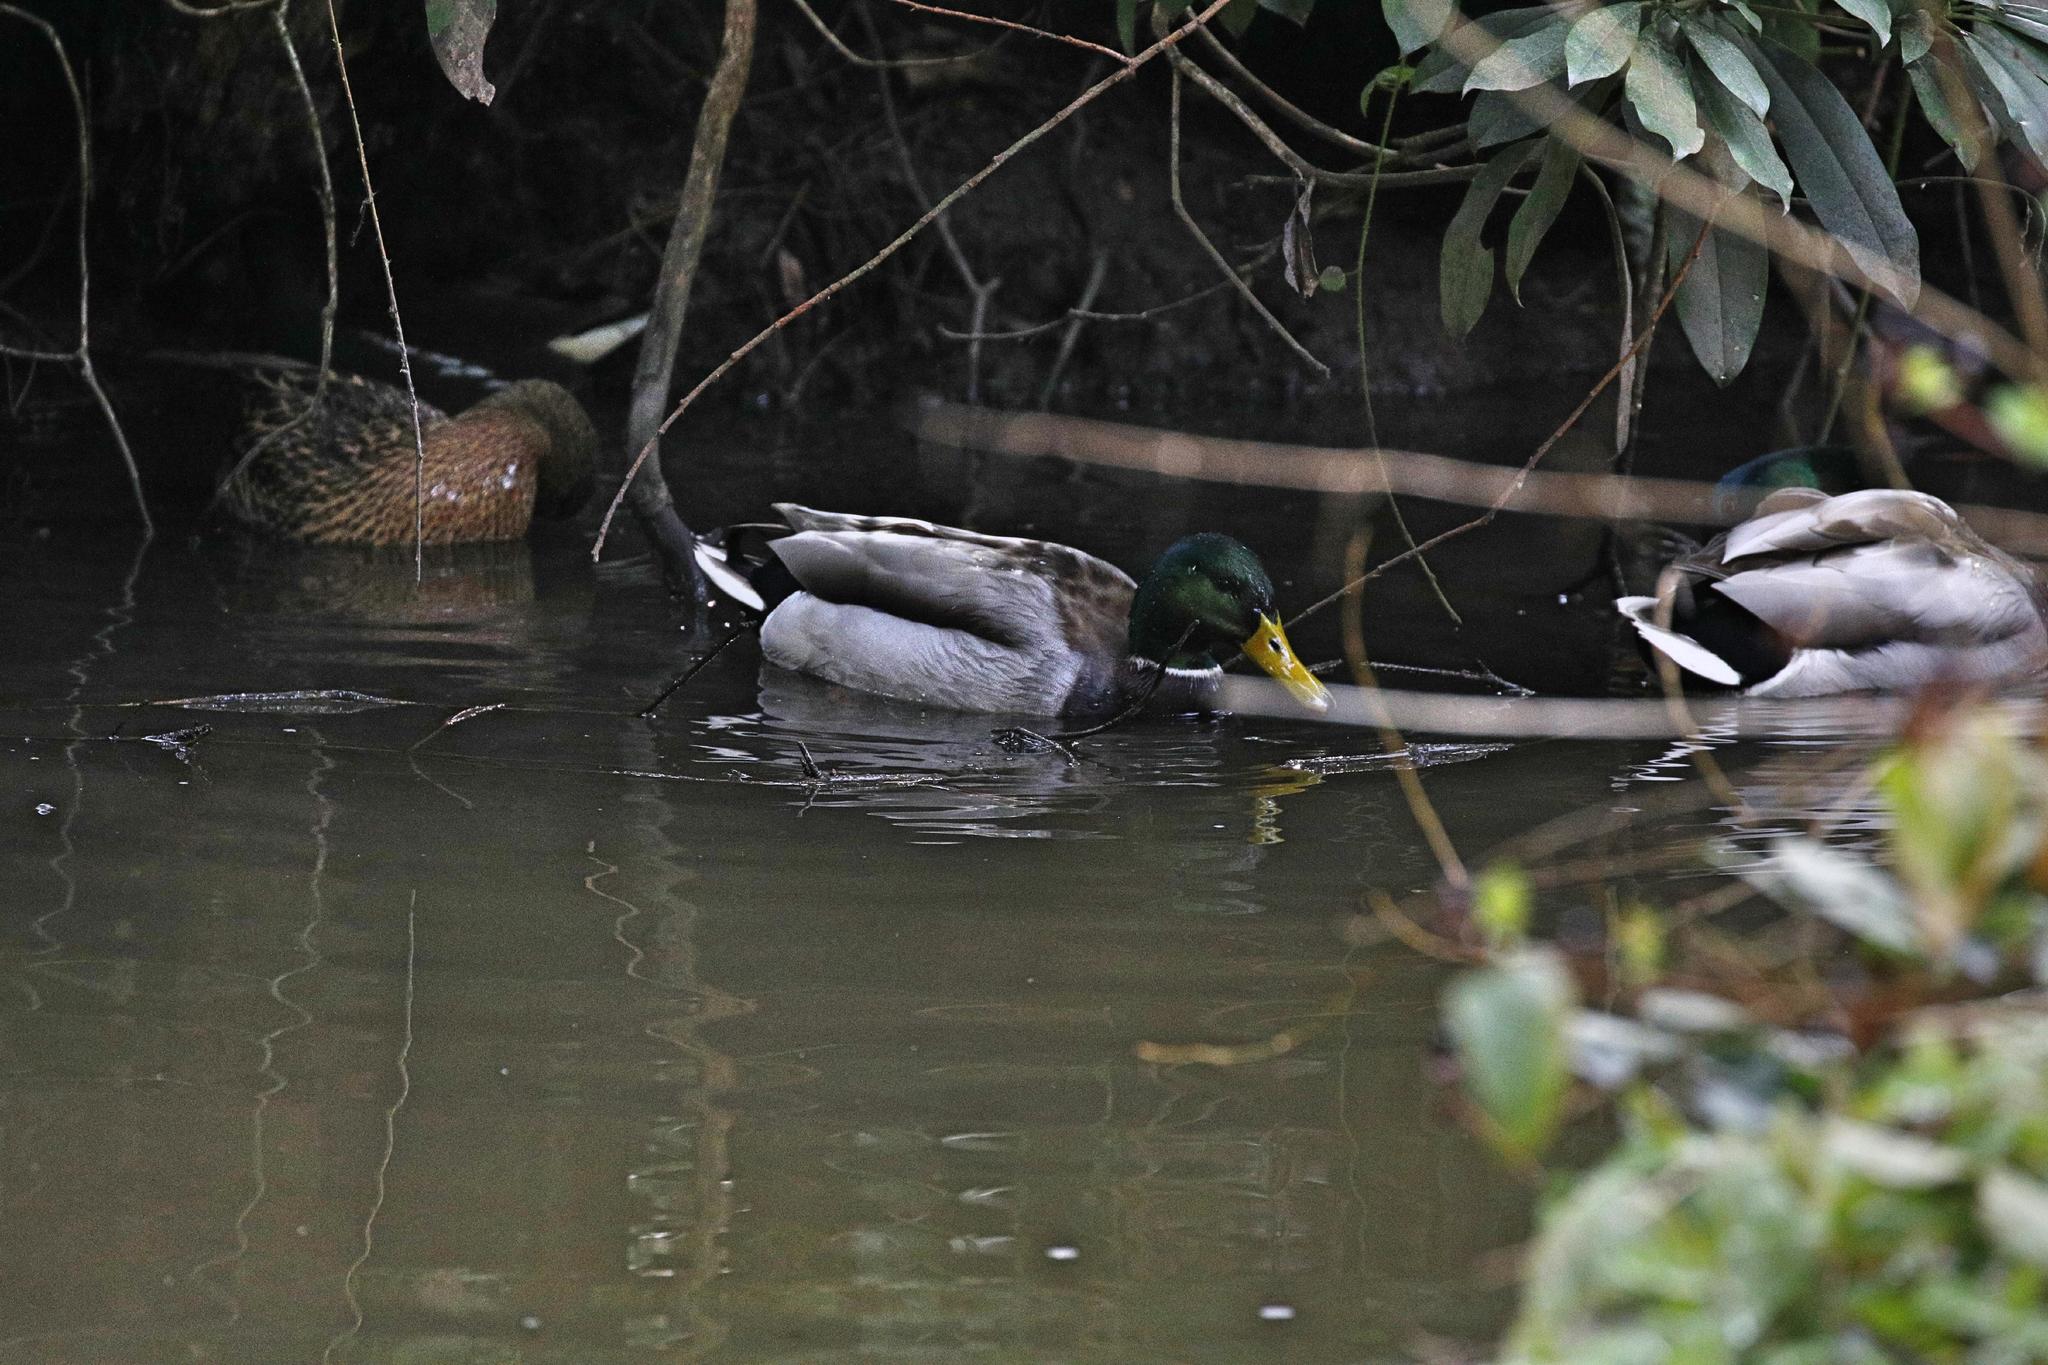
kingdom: Animalia
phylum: Chordata
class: Aves
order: Anseriformes
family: Anatidae
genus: Anas
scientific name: Anas platyrhynchos
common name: Mallard
